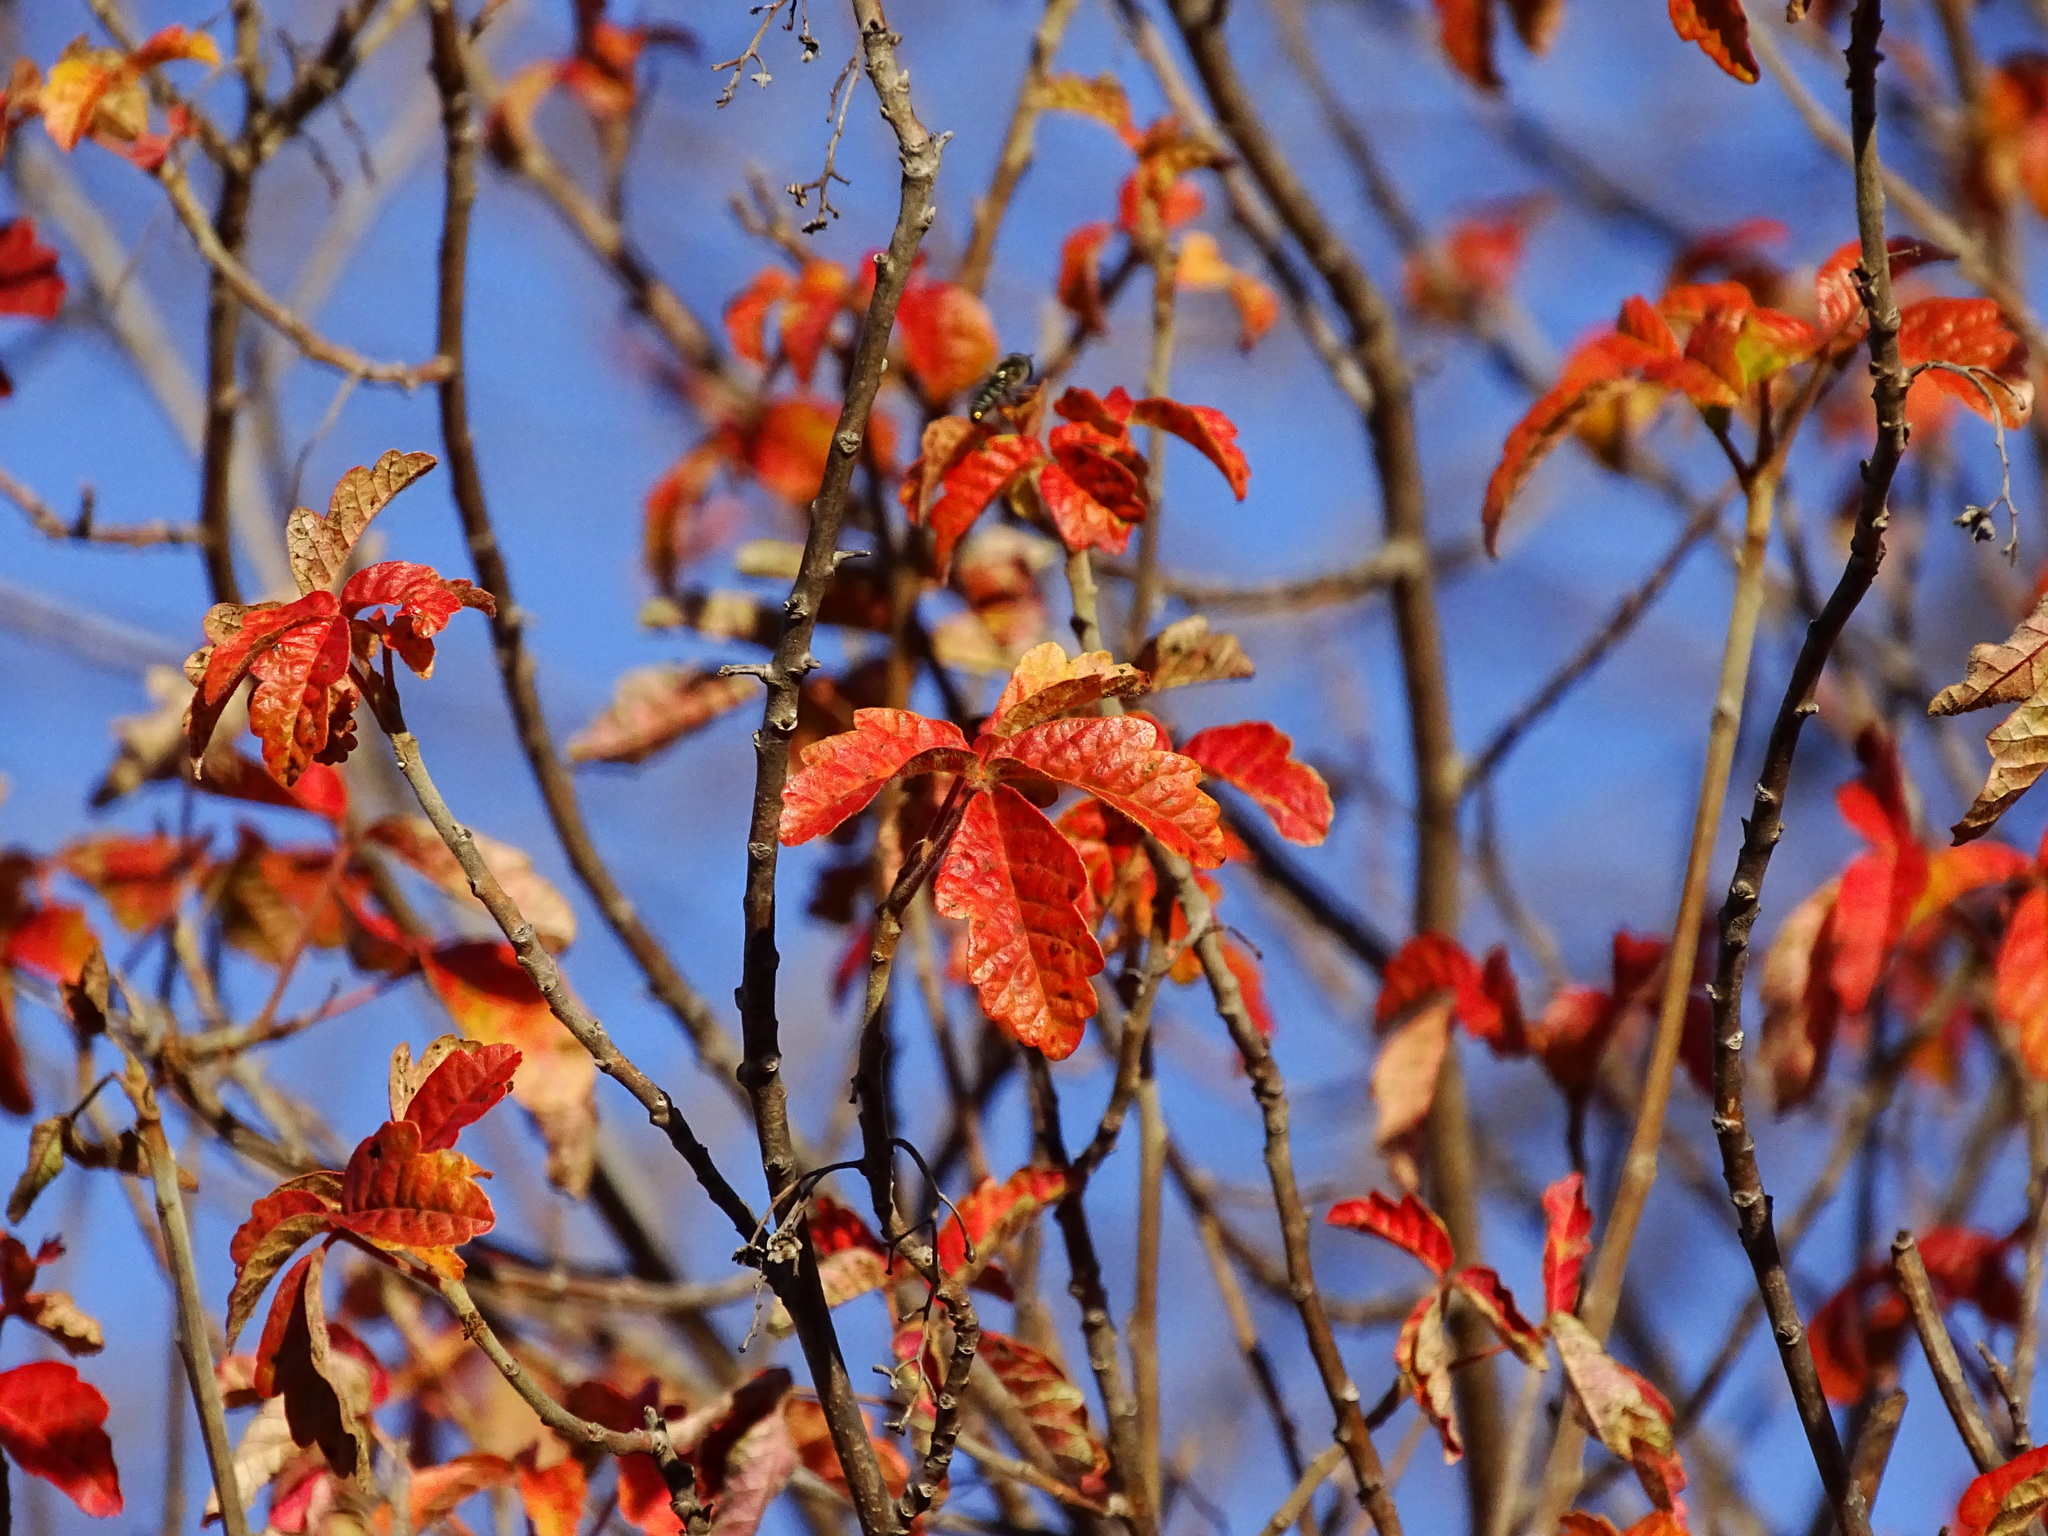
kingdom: Plantae
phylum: Tracheophyta
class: Magnoliopsida
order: Sapindales
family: Anacardiaceae
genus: Toxicodendron
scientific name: Toxicodendron diversilobum
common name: Pacific poison-oak
